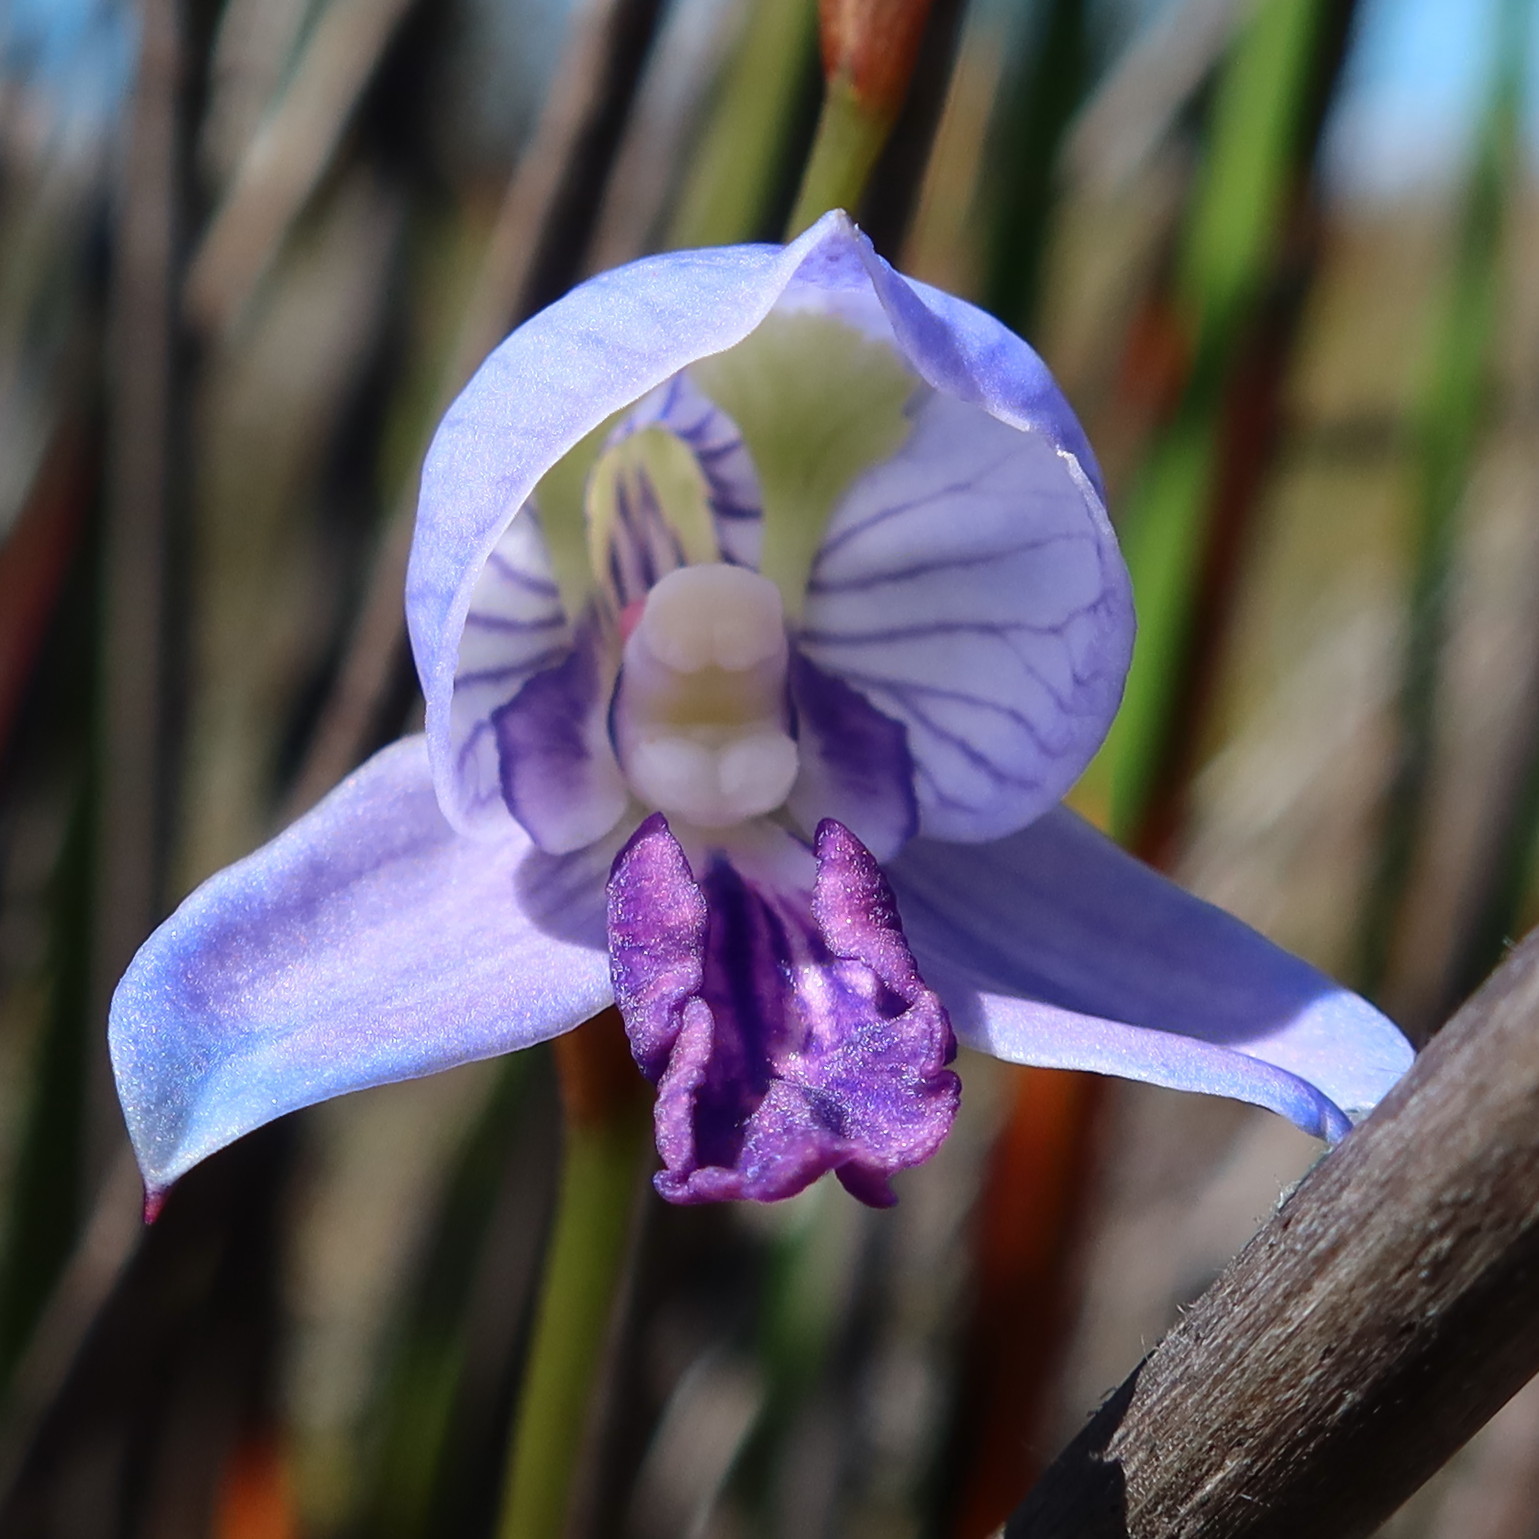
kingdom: Plantae
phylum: Tracheophyta
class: Liliopsida
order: Asparagales
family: Orchidaceae
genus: Disa
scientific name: Disa purpurascens
